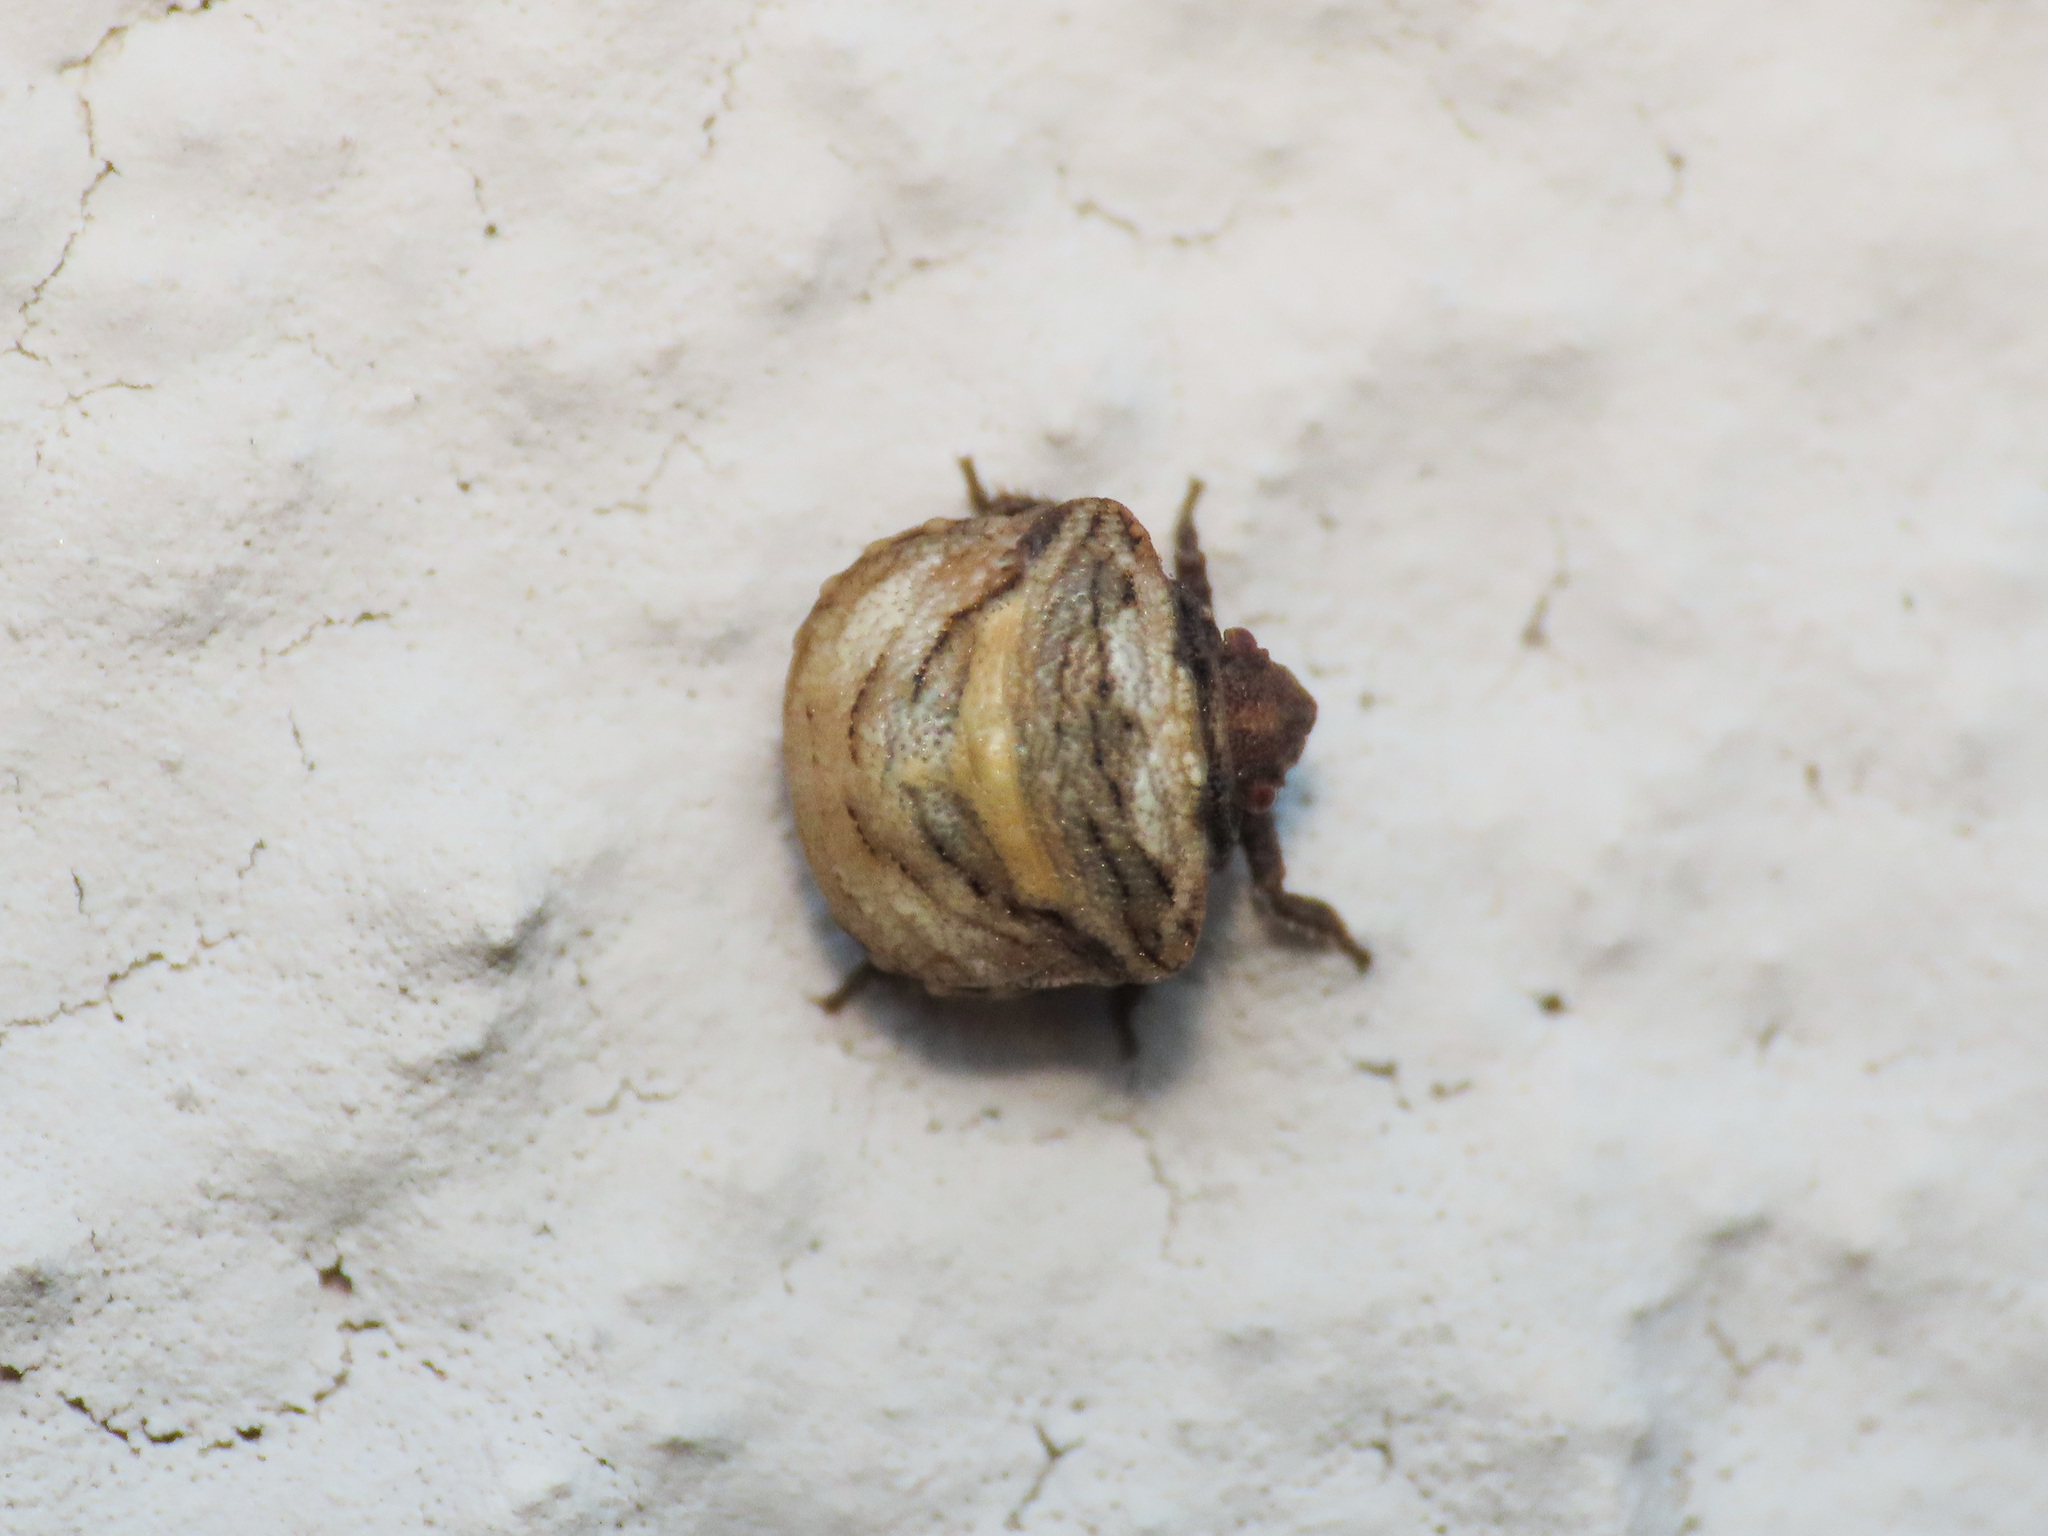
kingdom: Animalia
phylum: Arthropoda
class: Insecta
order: Hemiptera
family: Pentatomidae
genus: Vilpianus
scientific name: Vilpianus galii
